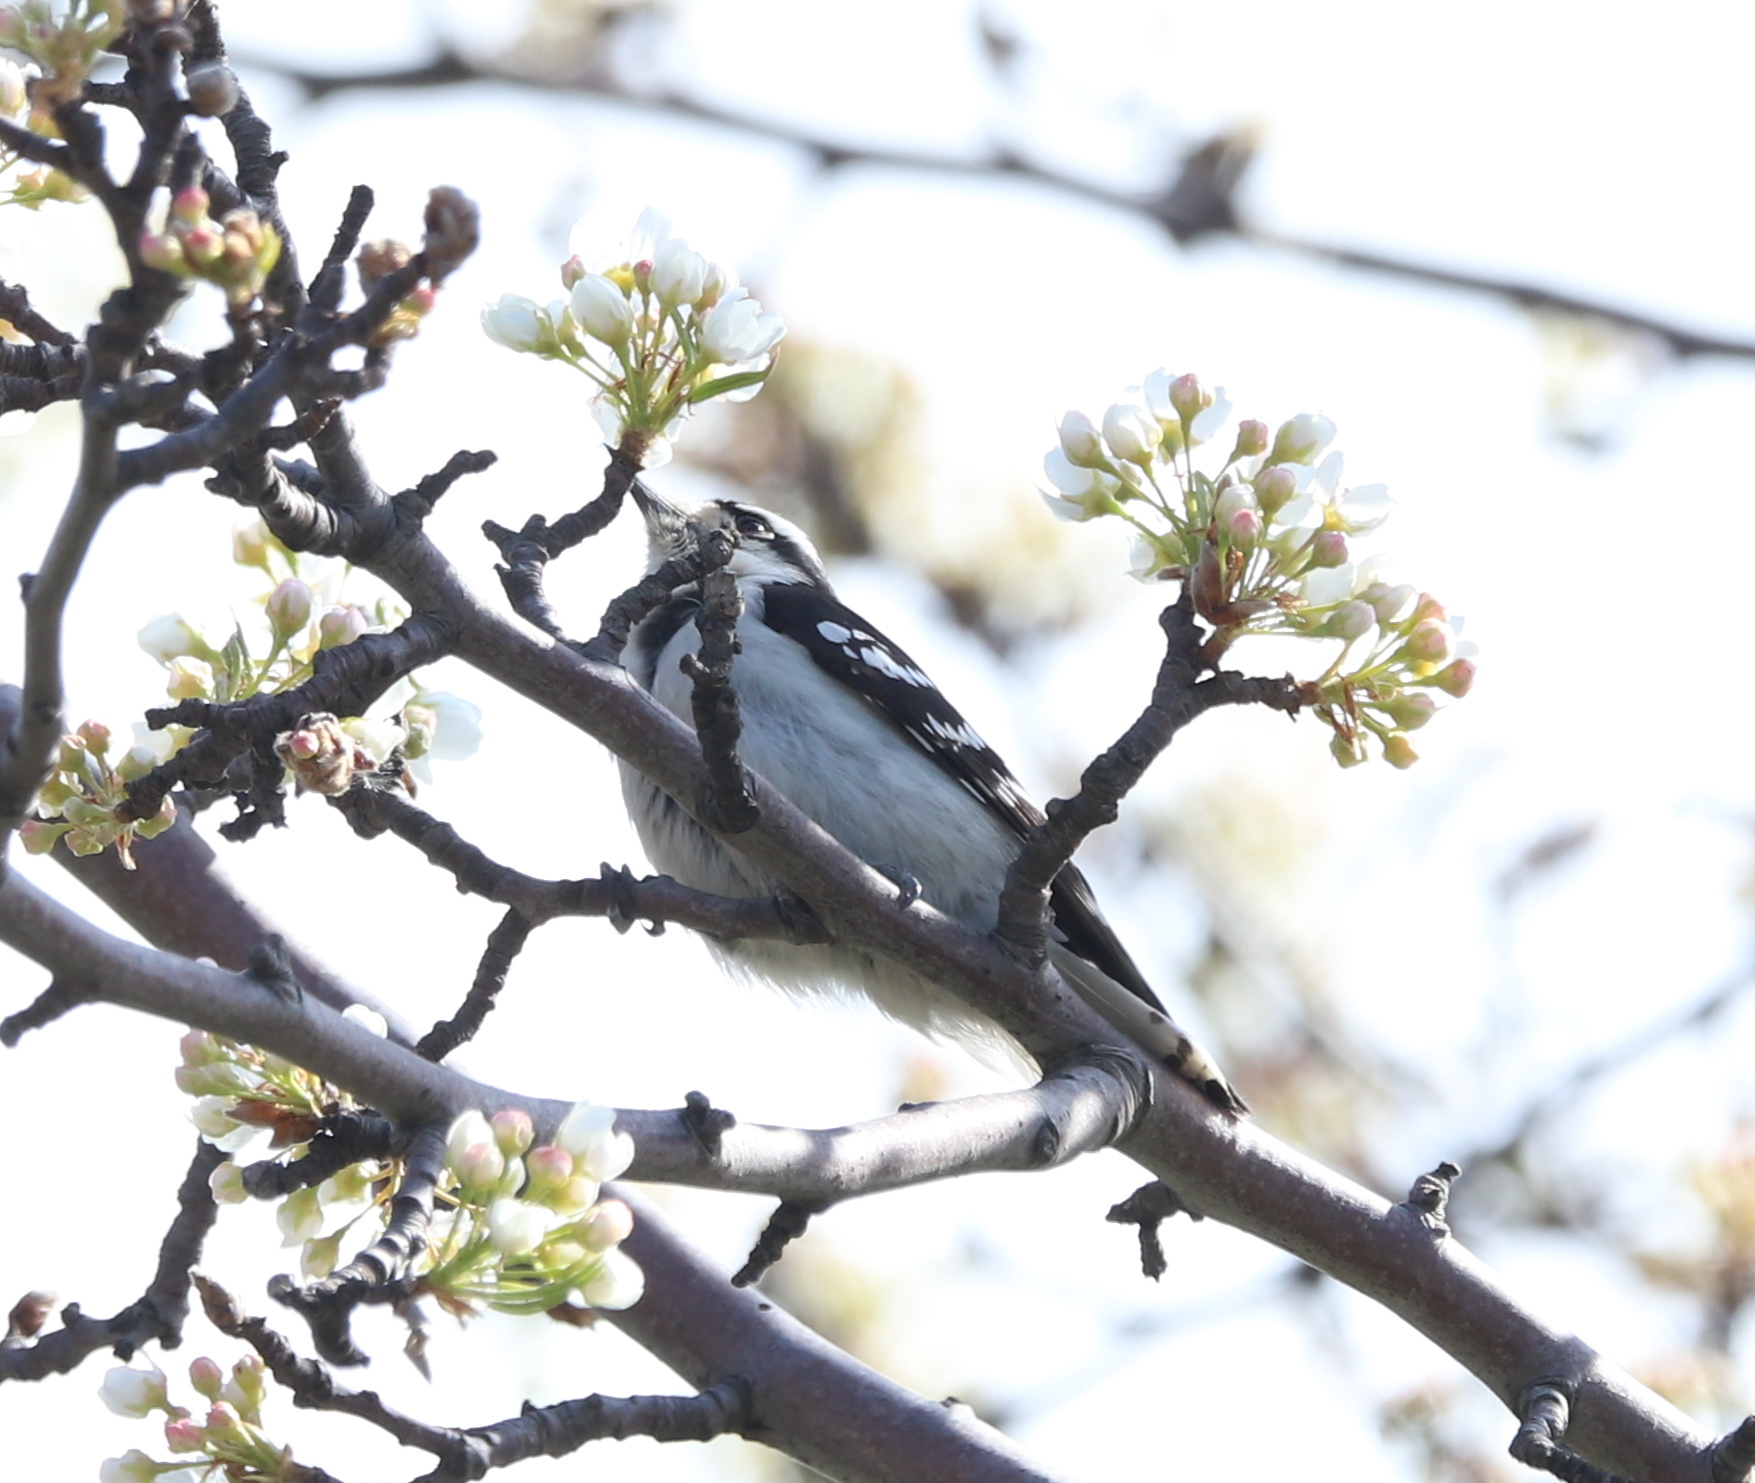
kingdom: Animalia
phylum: Chordata
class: Aves
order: Piciformes
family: Picidae
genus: Dryobates
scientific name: Dryobates pubescens
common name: Downy woodpecker
